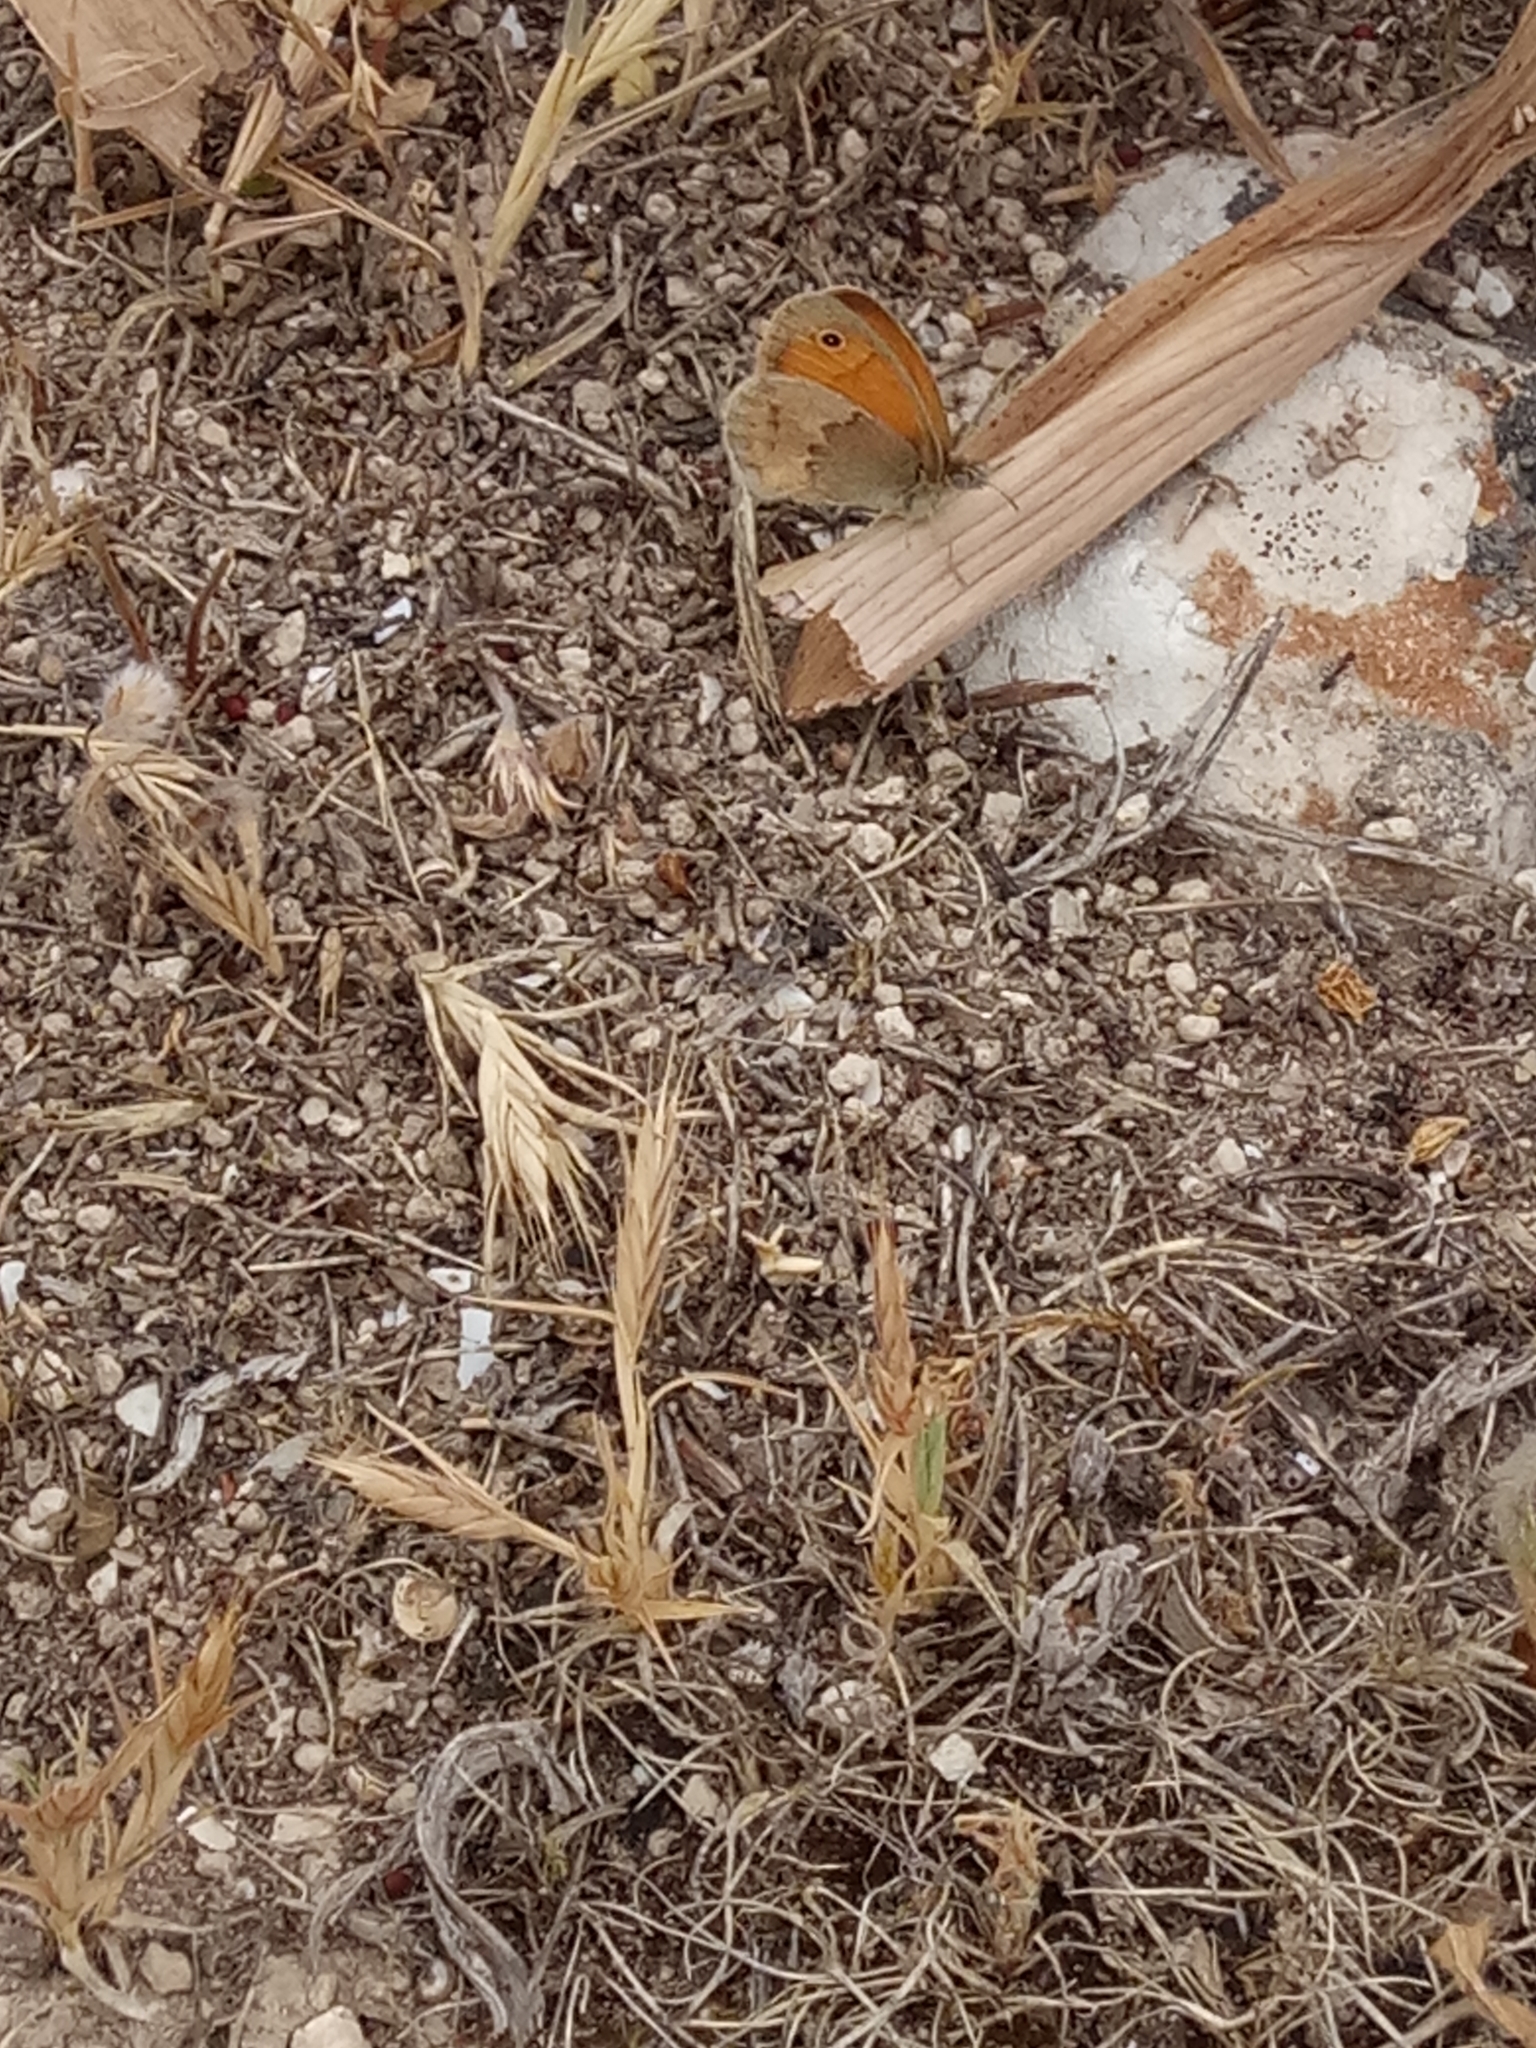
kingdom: Animalia
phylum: Arthropoda
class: Insecta
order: Lepidoptera
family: Nymphalidae
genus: Coenonympha
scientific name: Coenonympha pamphilus
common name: Small heath
